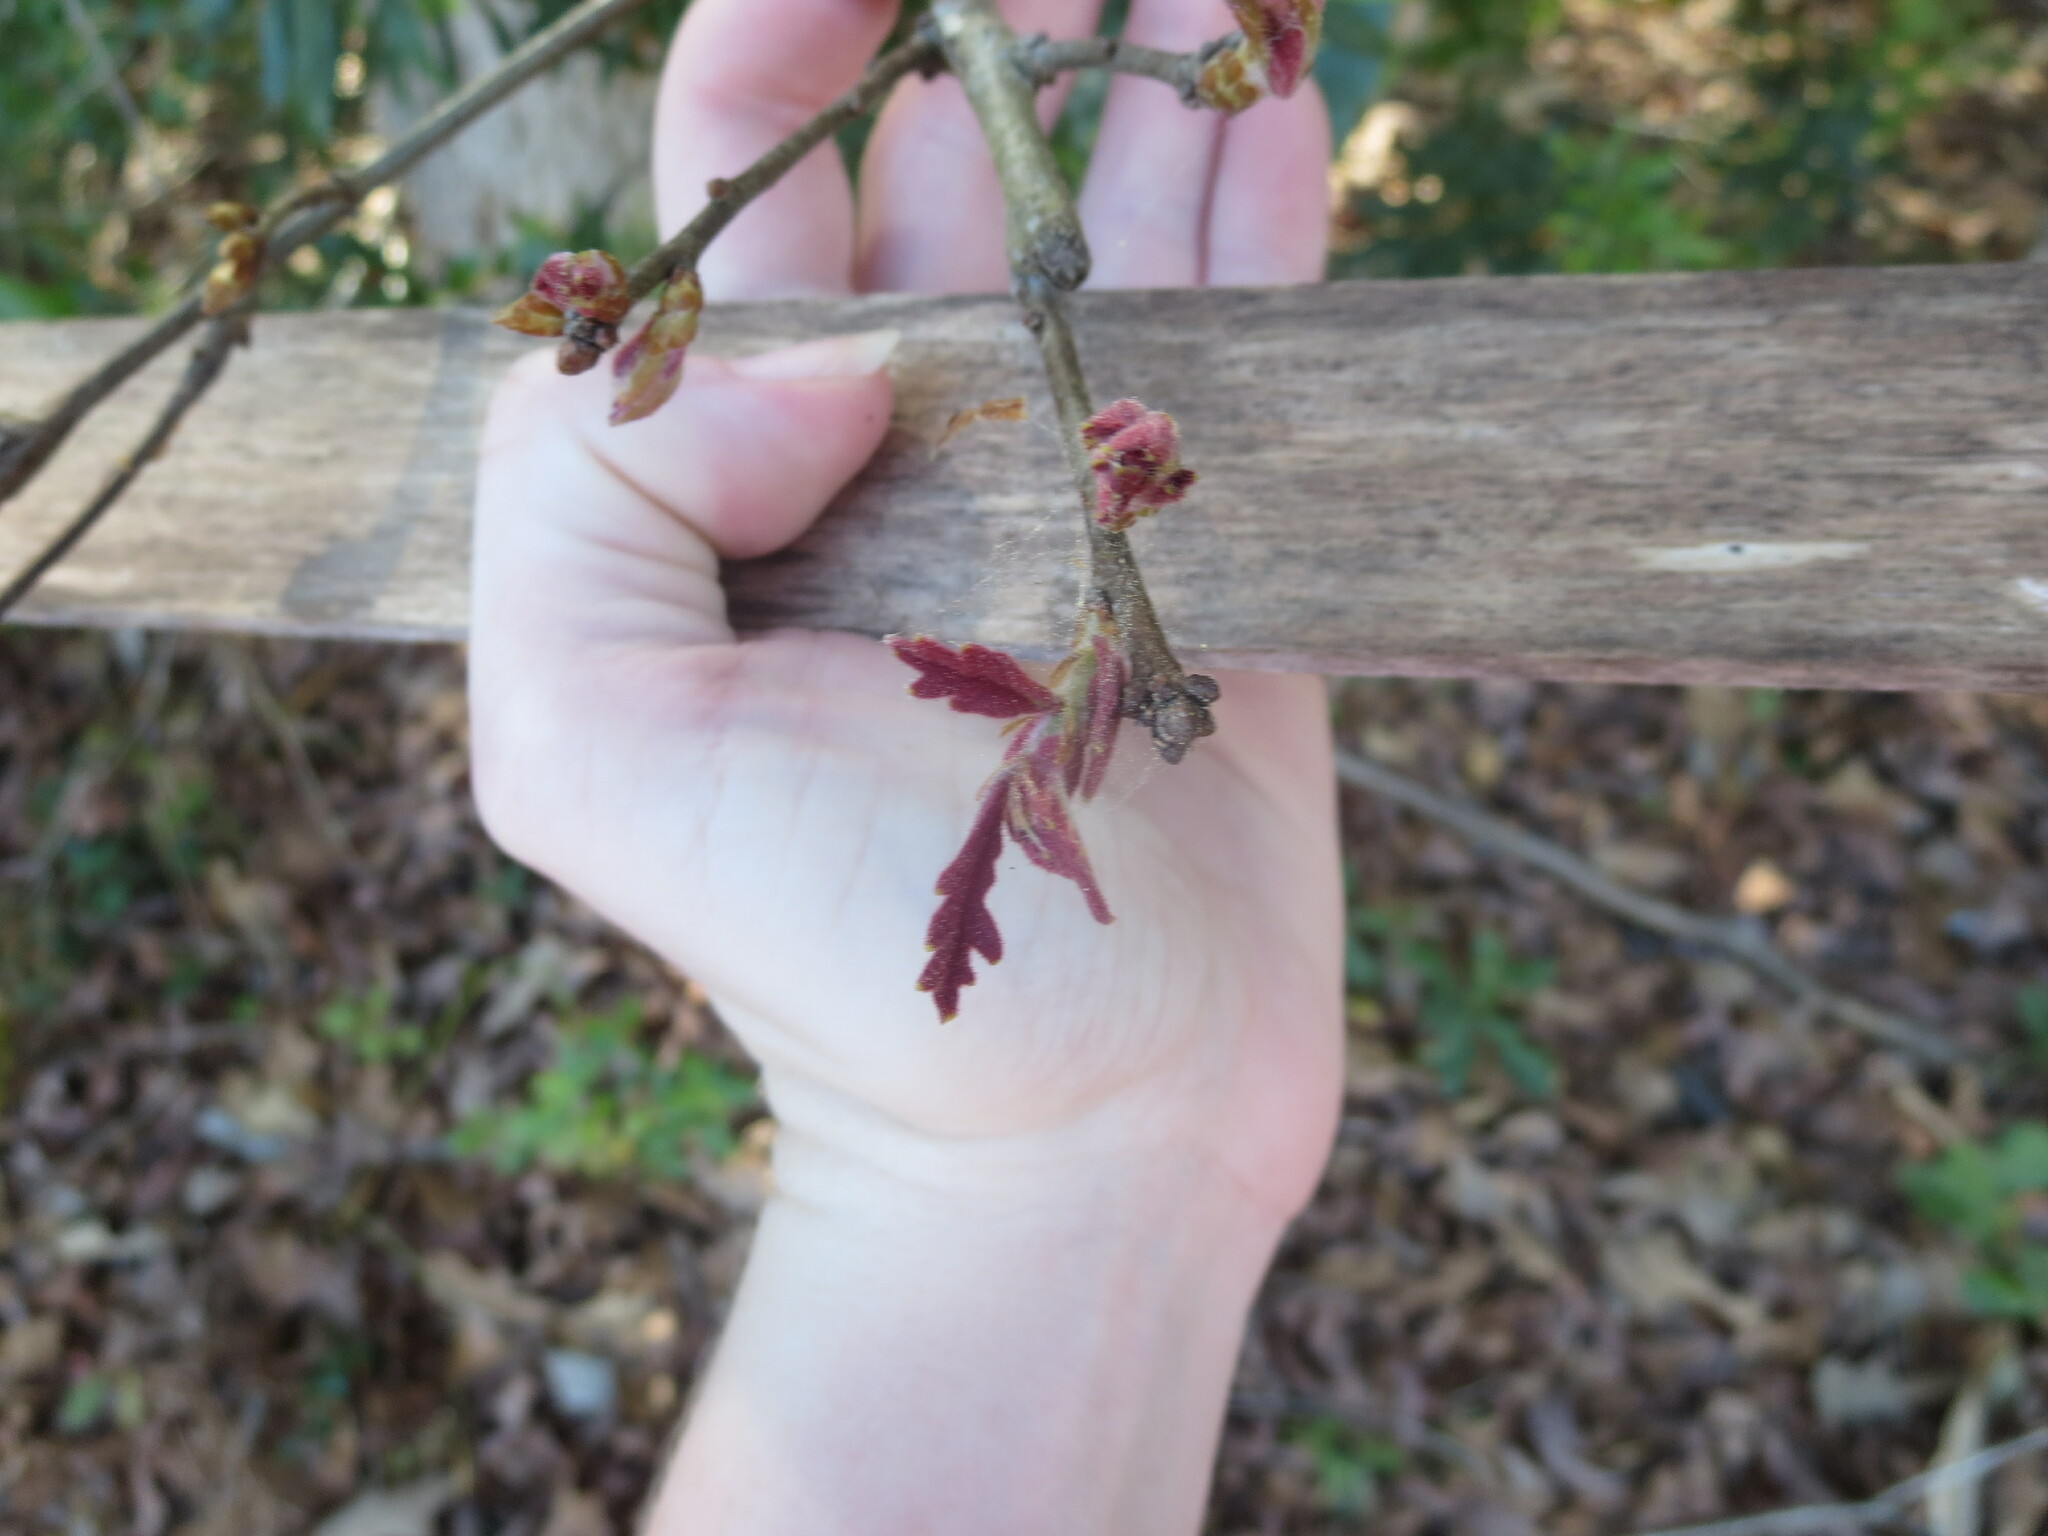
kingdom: Plantae
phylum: Tracheophyta
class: Magnoliopsida
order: Fagales
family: Fagaceae
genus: Quercus
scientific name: Quercus alba
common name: White oak
